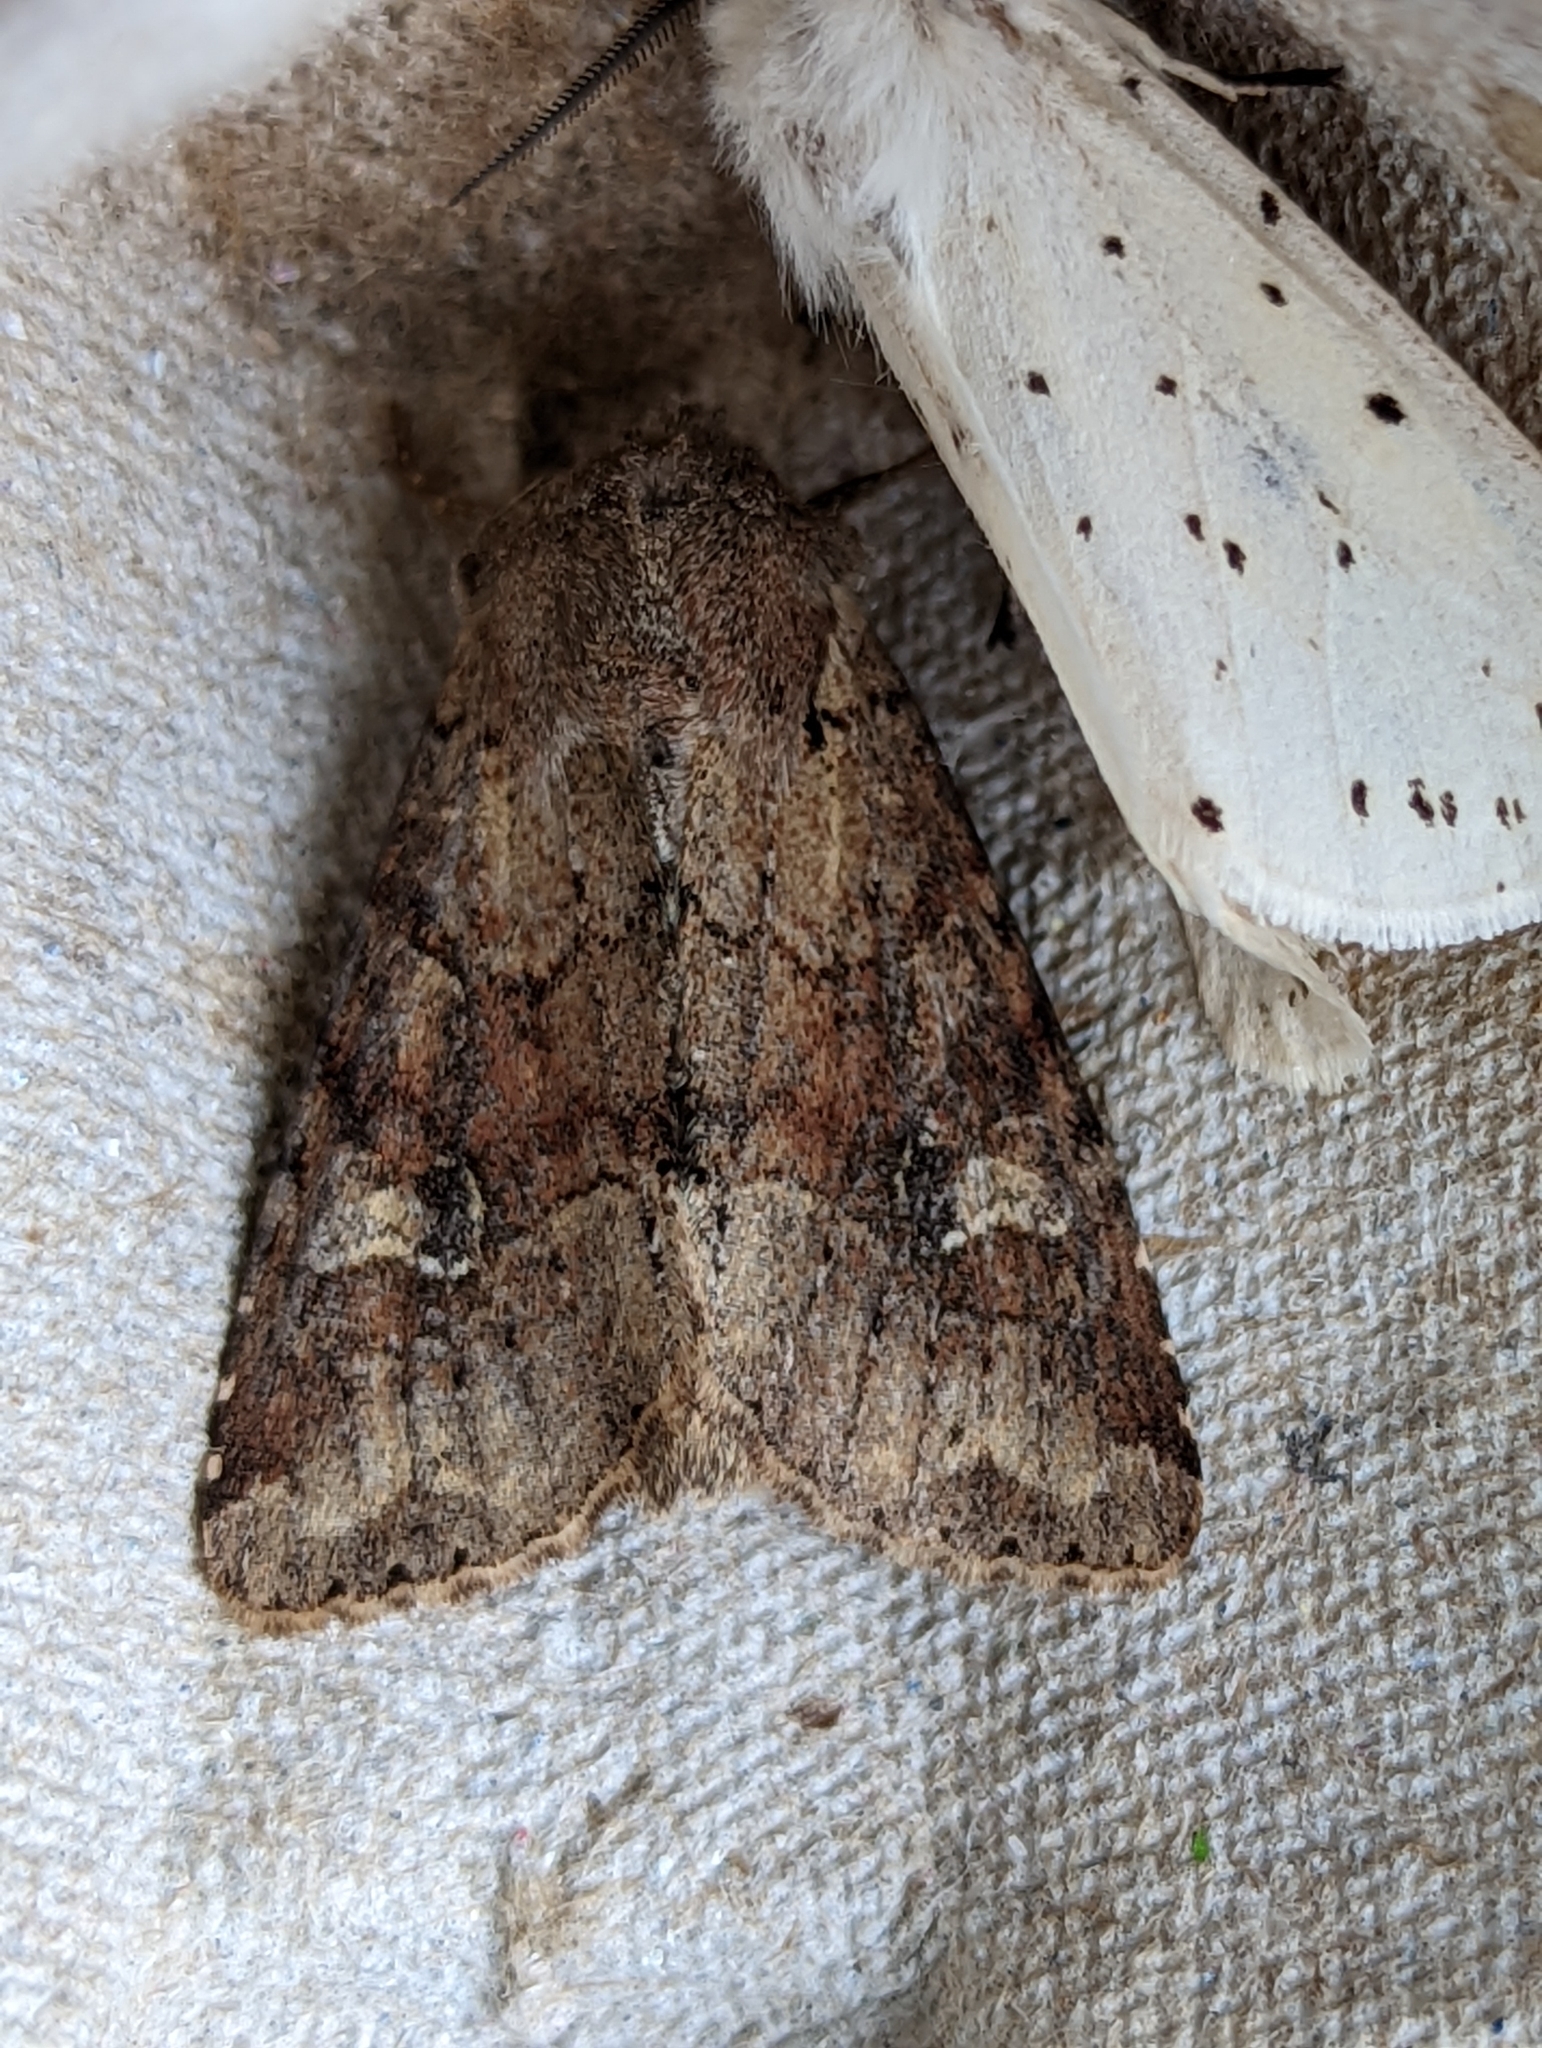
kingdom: Animalia
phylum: Arthropoda
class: Insecta
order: Lepidoptera
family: Noctuidae
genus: Apamea
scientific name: Apamea sordens
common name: Rustic shoulder-knot
